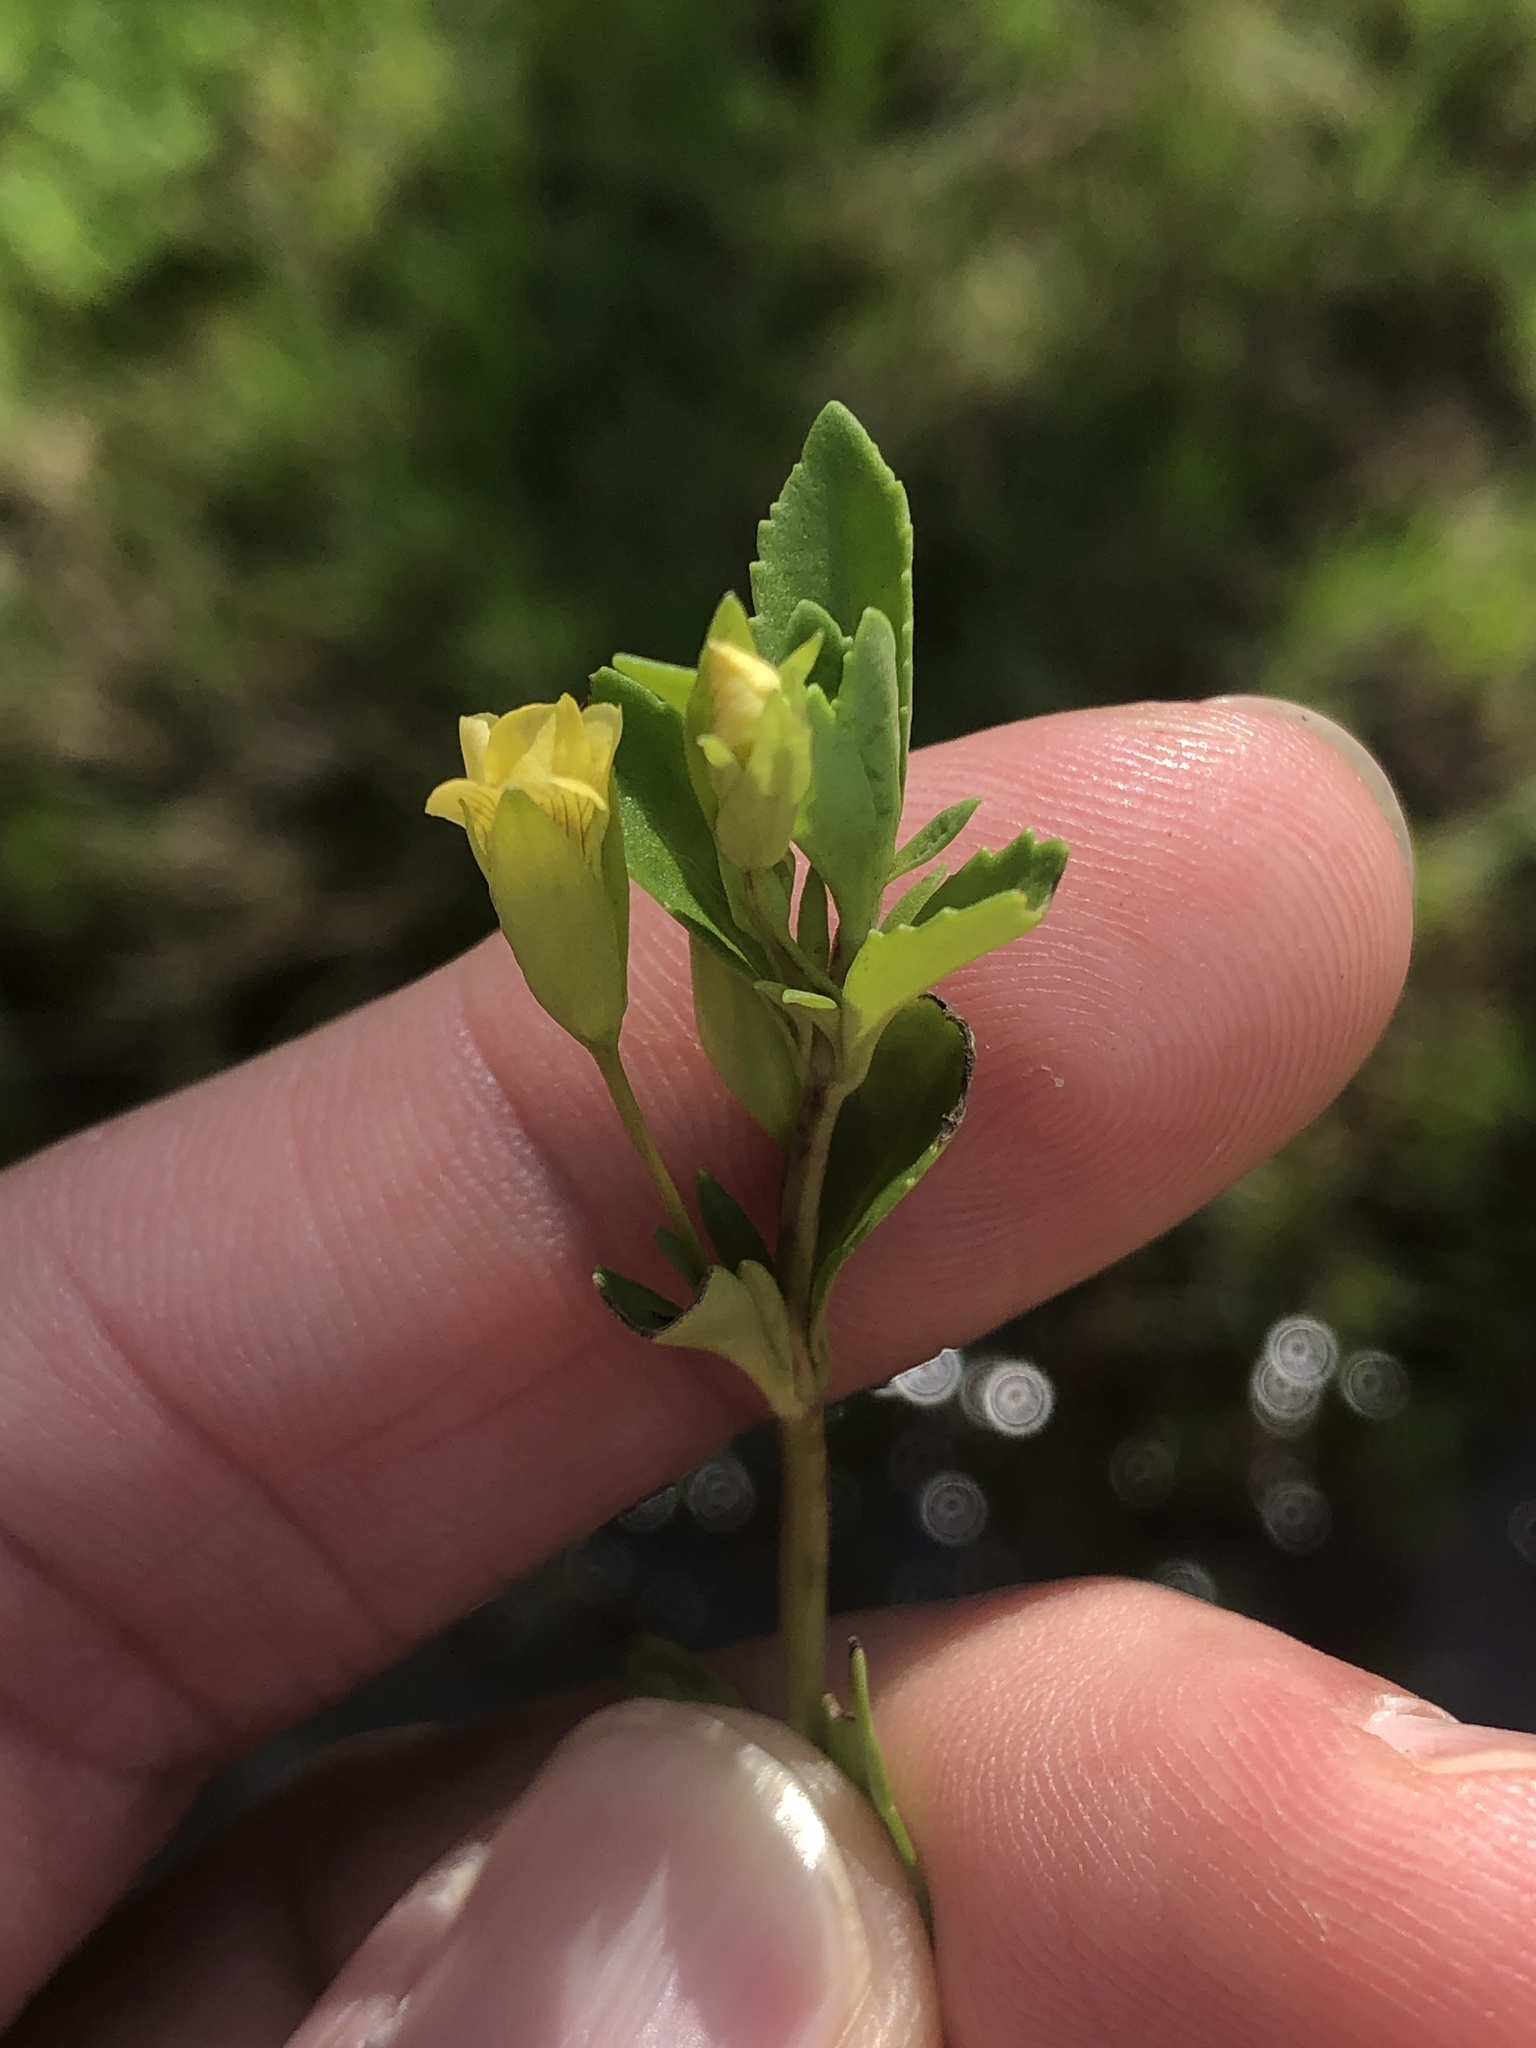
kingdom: Plantae
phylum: Tracheophyta
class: Magnoliopsida
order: Lamiales
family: Plantaginaceae
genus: Mecardonia
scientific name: Mecardonia procumbens
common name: Baby jump-up
